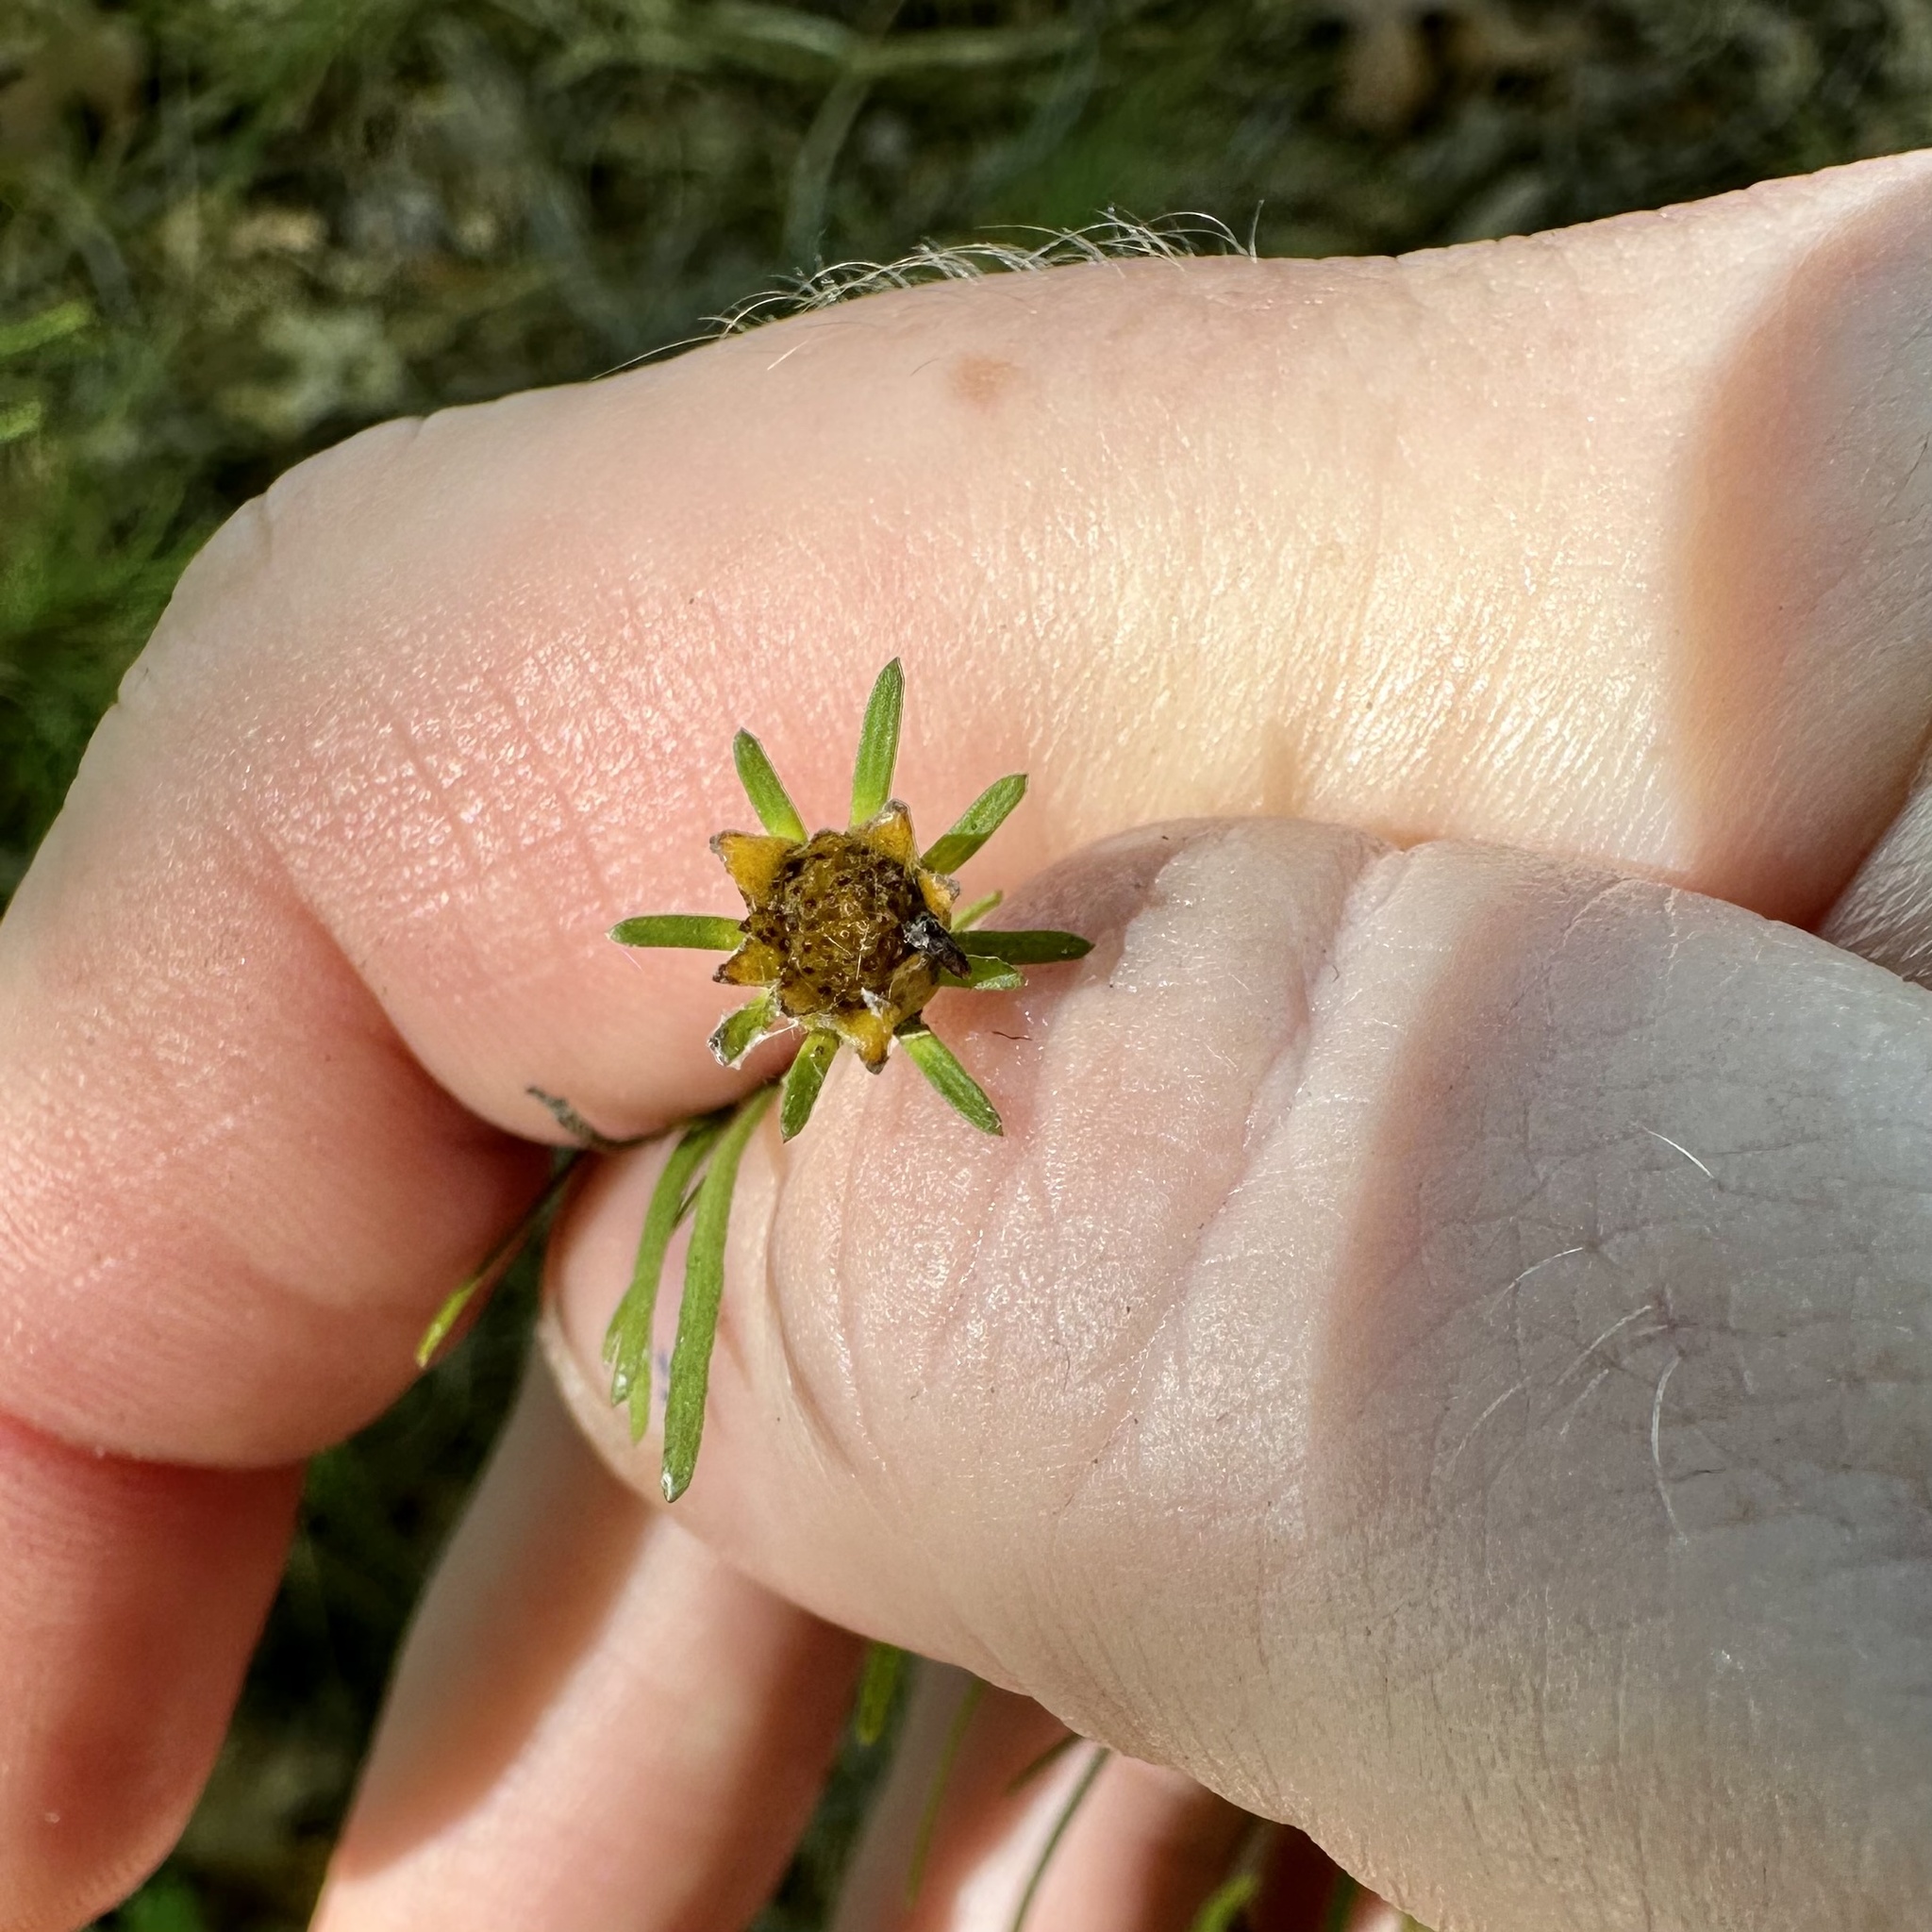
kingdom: Plantae
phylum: Tracheophyta
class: Magnoliopsida
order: Asterales
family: Asteraceae
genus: Coreopsis
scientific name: Coreopsis verticillata
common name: Whorled tickseed
